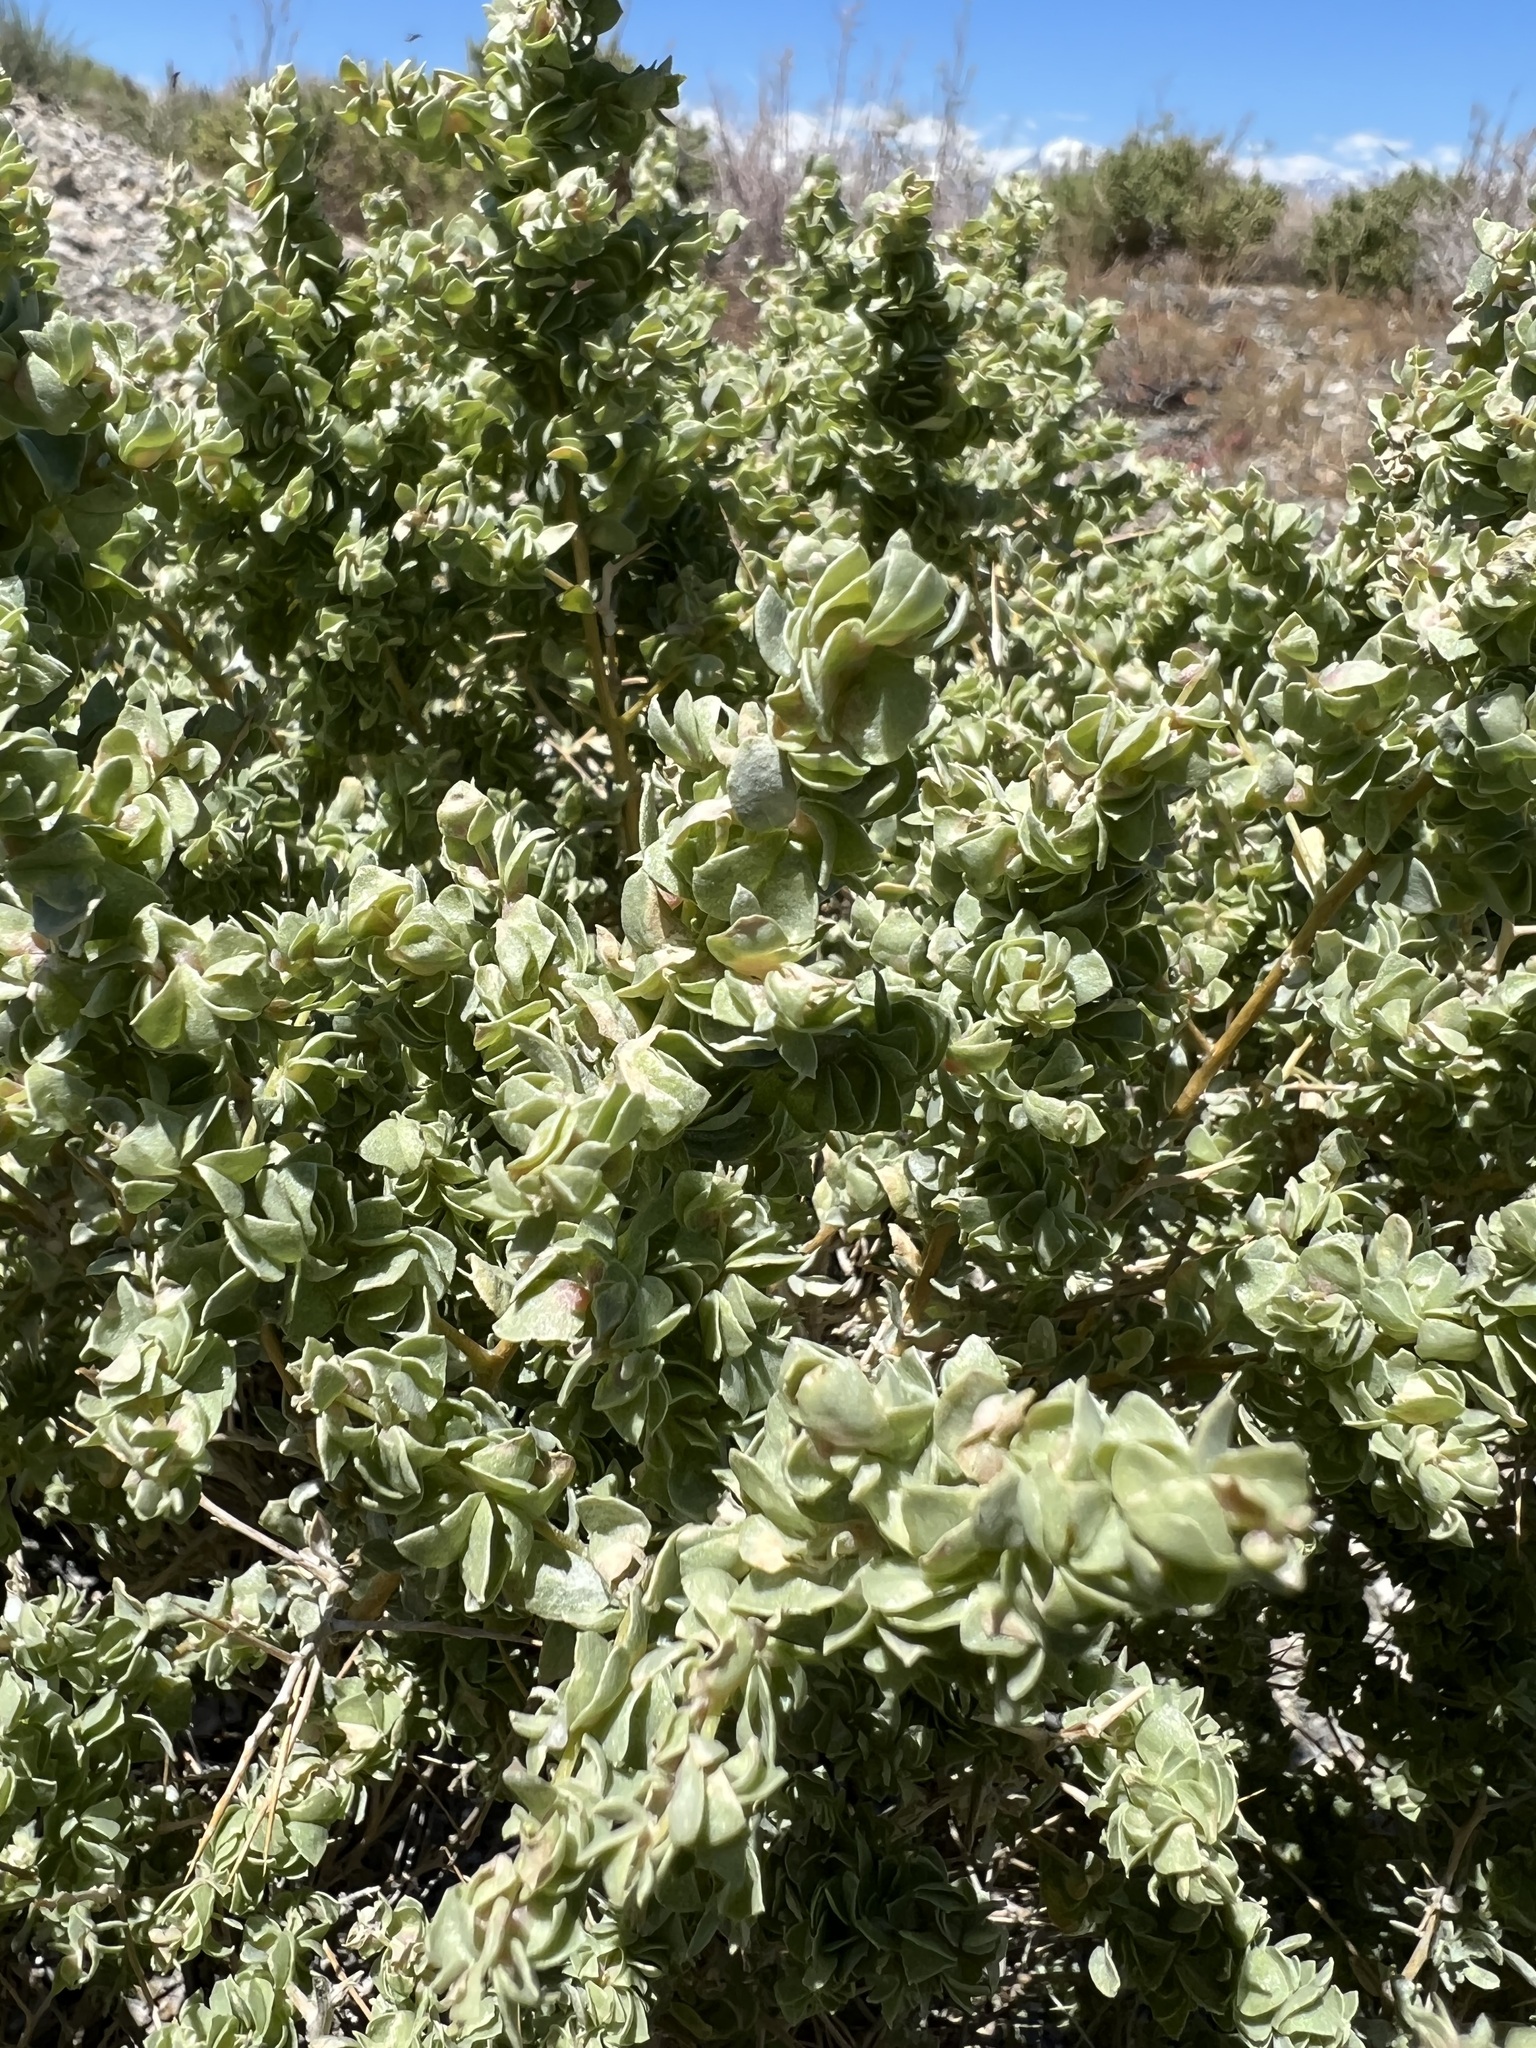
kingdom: Plantae
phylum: Tracheophyta
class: Magnoliopsida
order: Caryophyllales
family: Amaranthaceae
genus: Atriplex
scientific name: Atriplex confertifolia
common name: Shadscale
